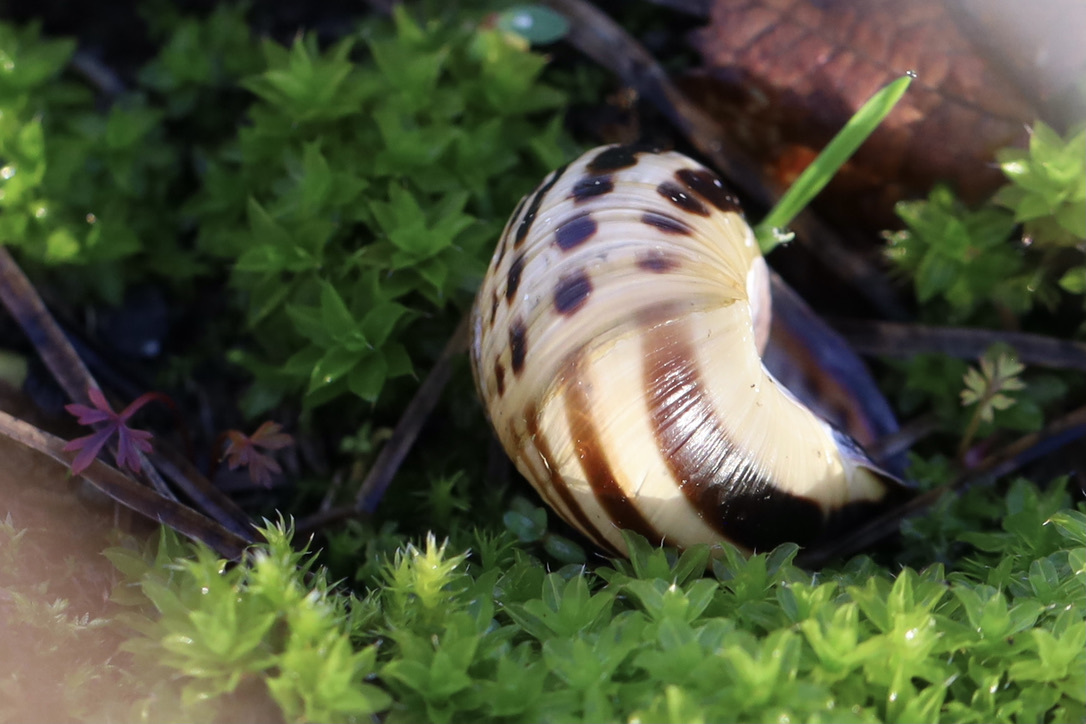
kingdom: Animalia
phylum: Mollusca
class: Gastropoda
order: Stylommatophora
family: Helicidae
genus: Cepaea
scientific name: Cepaea nemoralis
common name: Grovesnail
